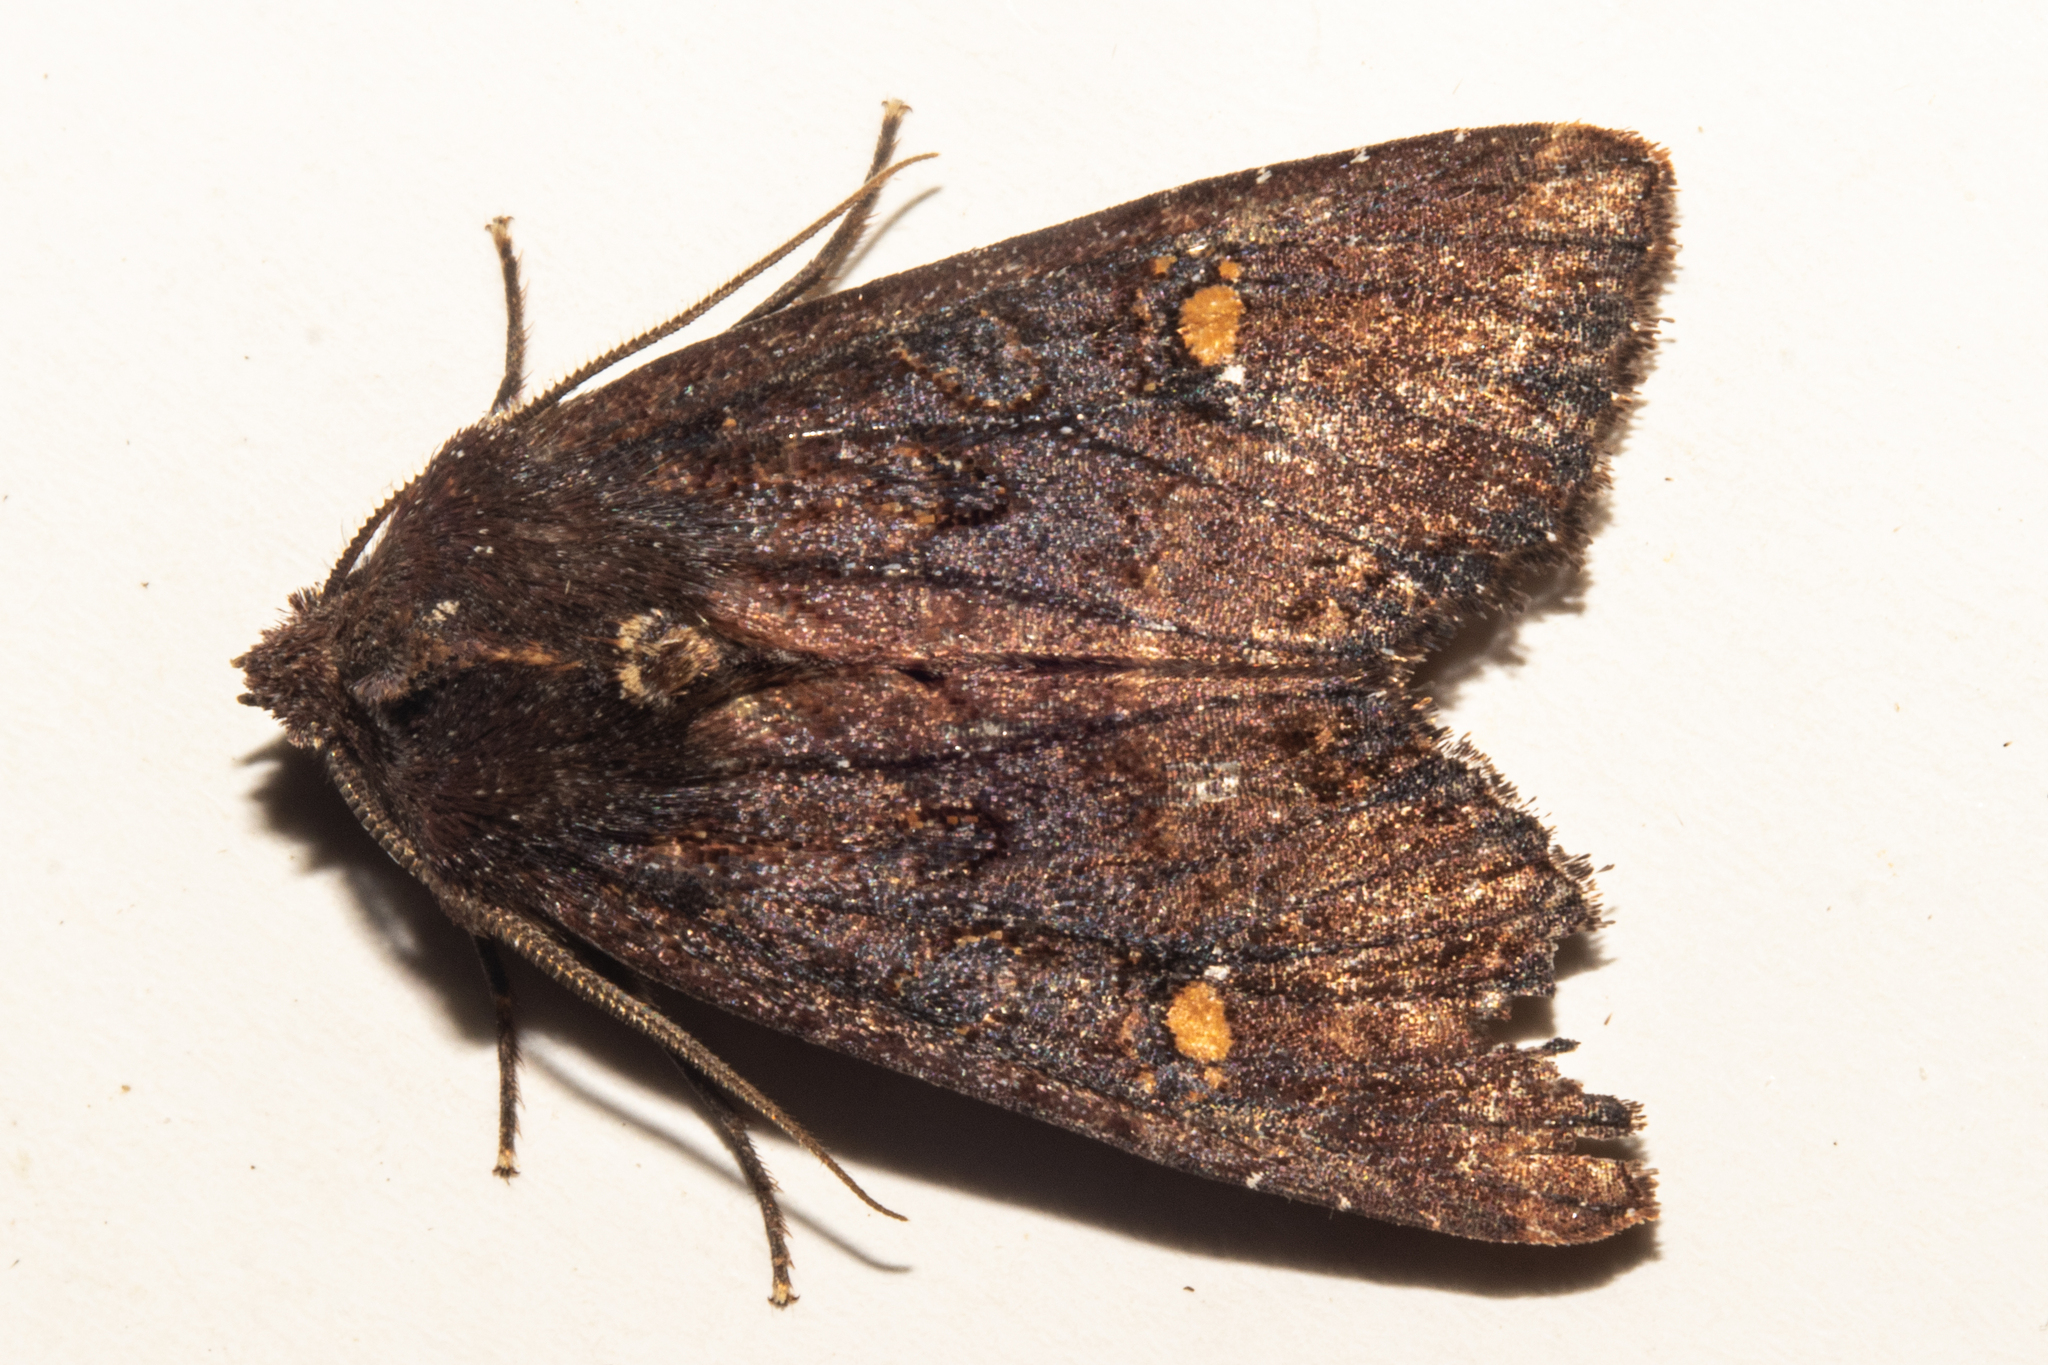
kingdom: Animalia
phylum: Arthropoda
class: Insecta
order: Lepidoptera
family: Noctuidae
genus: Meterana
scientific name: Meterana vitiosa
